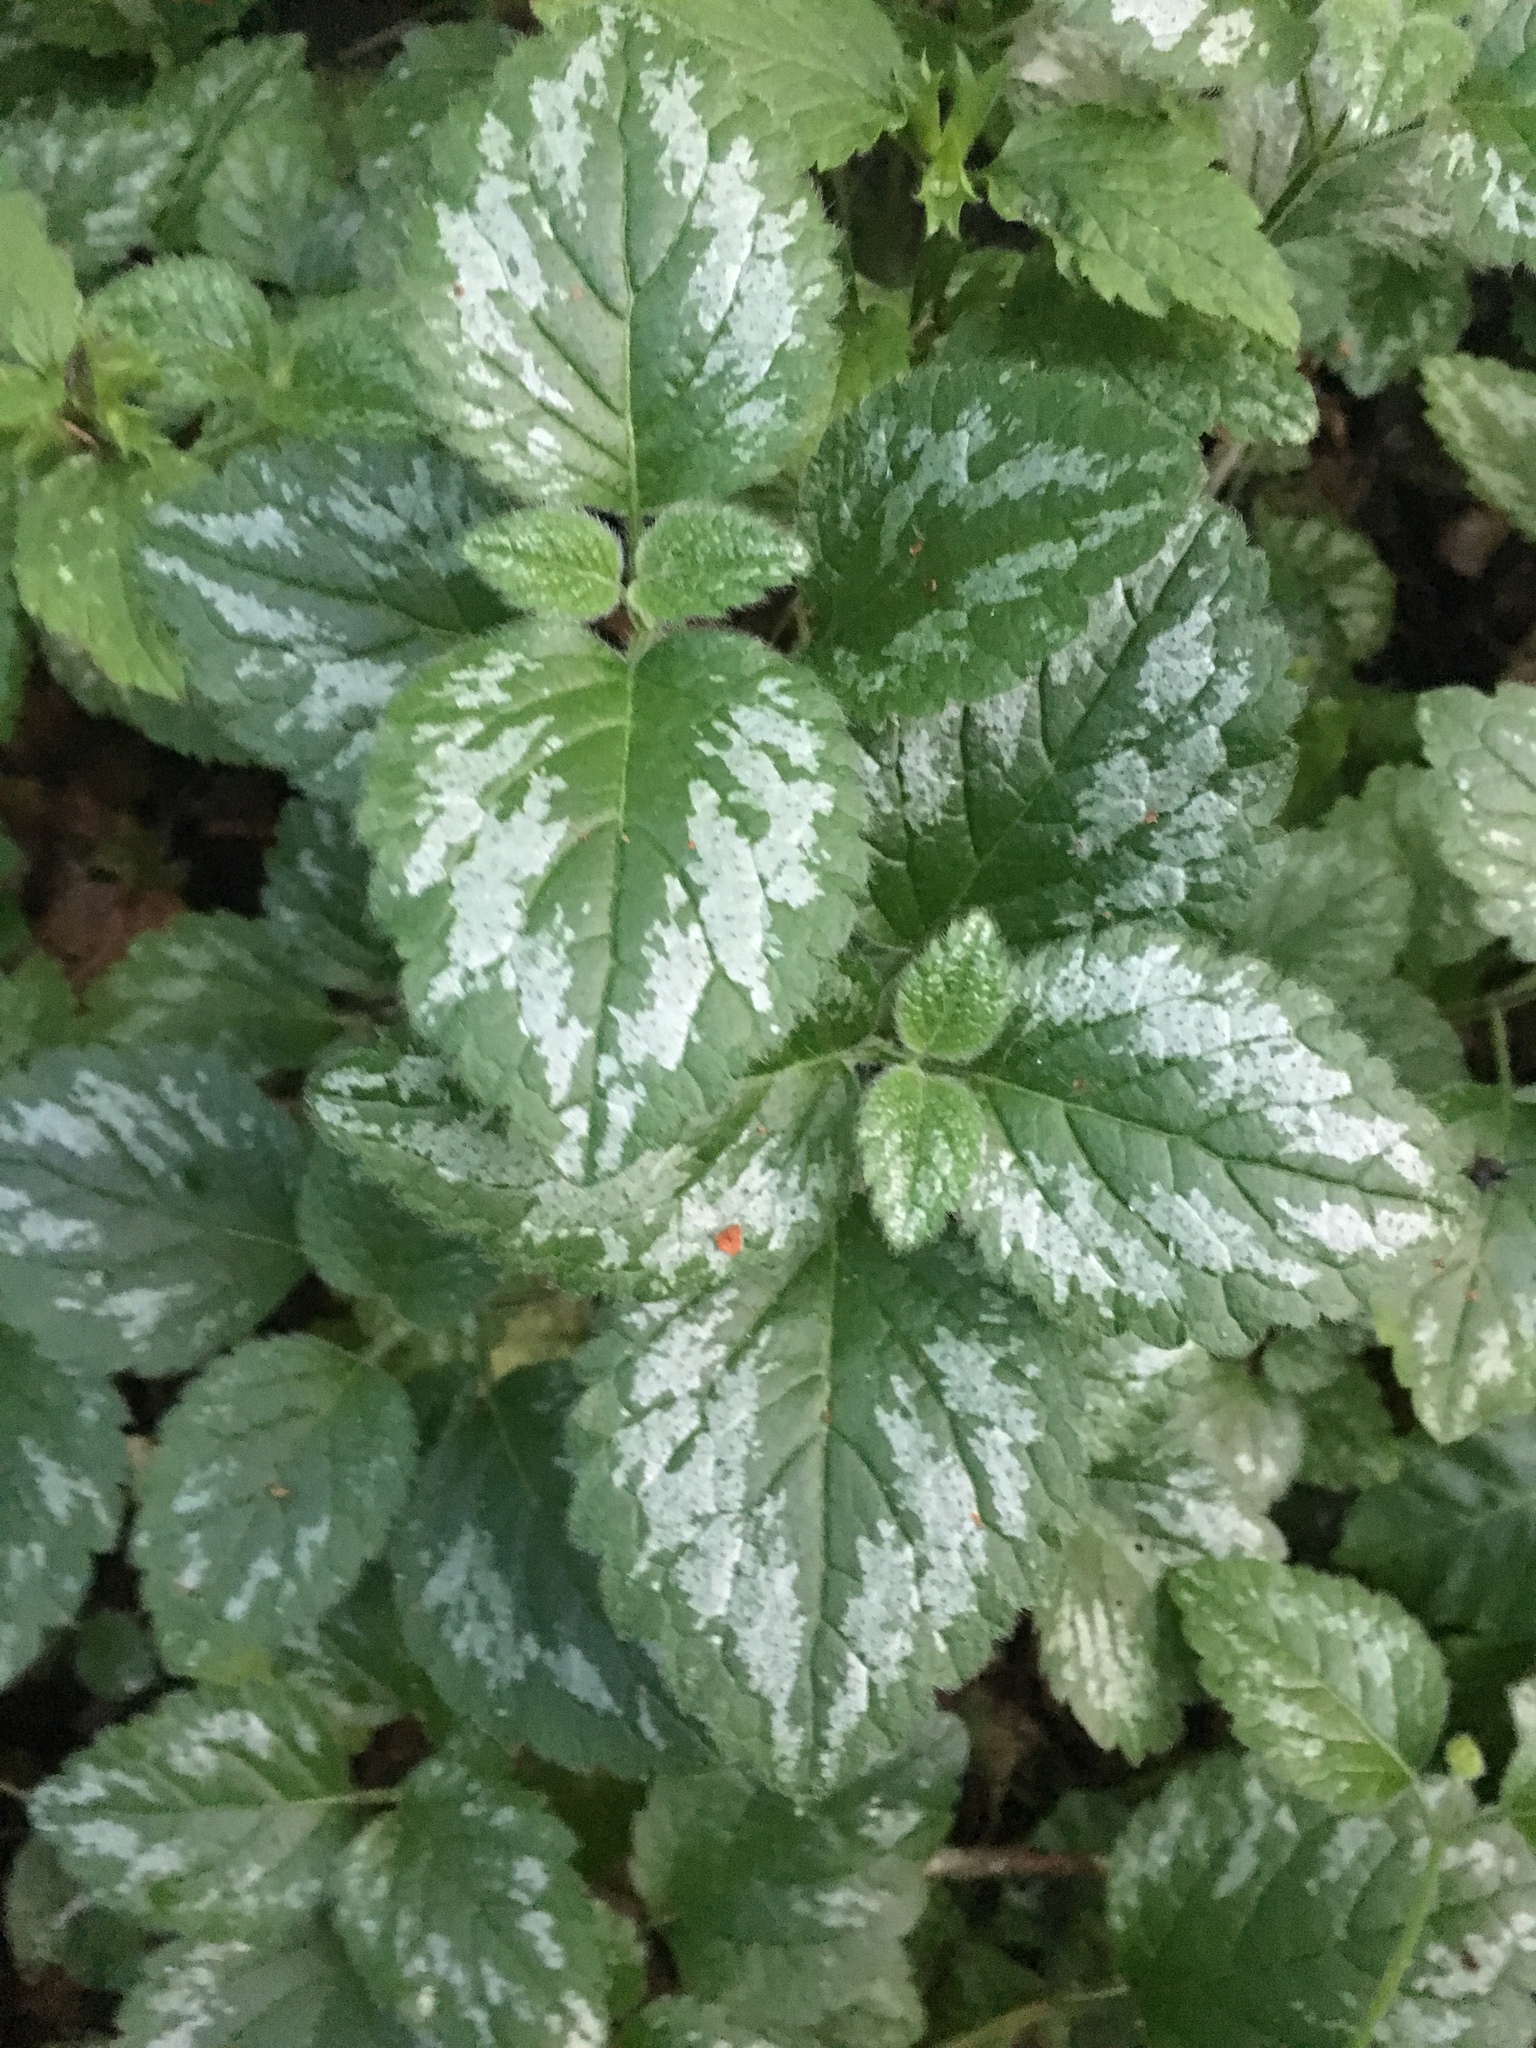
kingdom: Plantae
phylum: Tracheophyta
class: Magnoliopsida
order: Lamiales
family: Lamiaceae
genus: Lamium
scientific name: Lamium galeobdolon
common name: Yellow archangel
